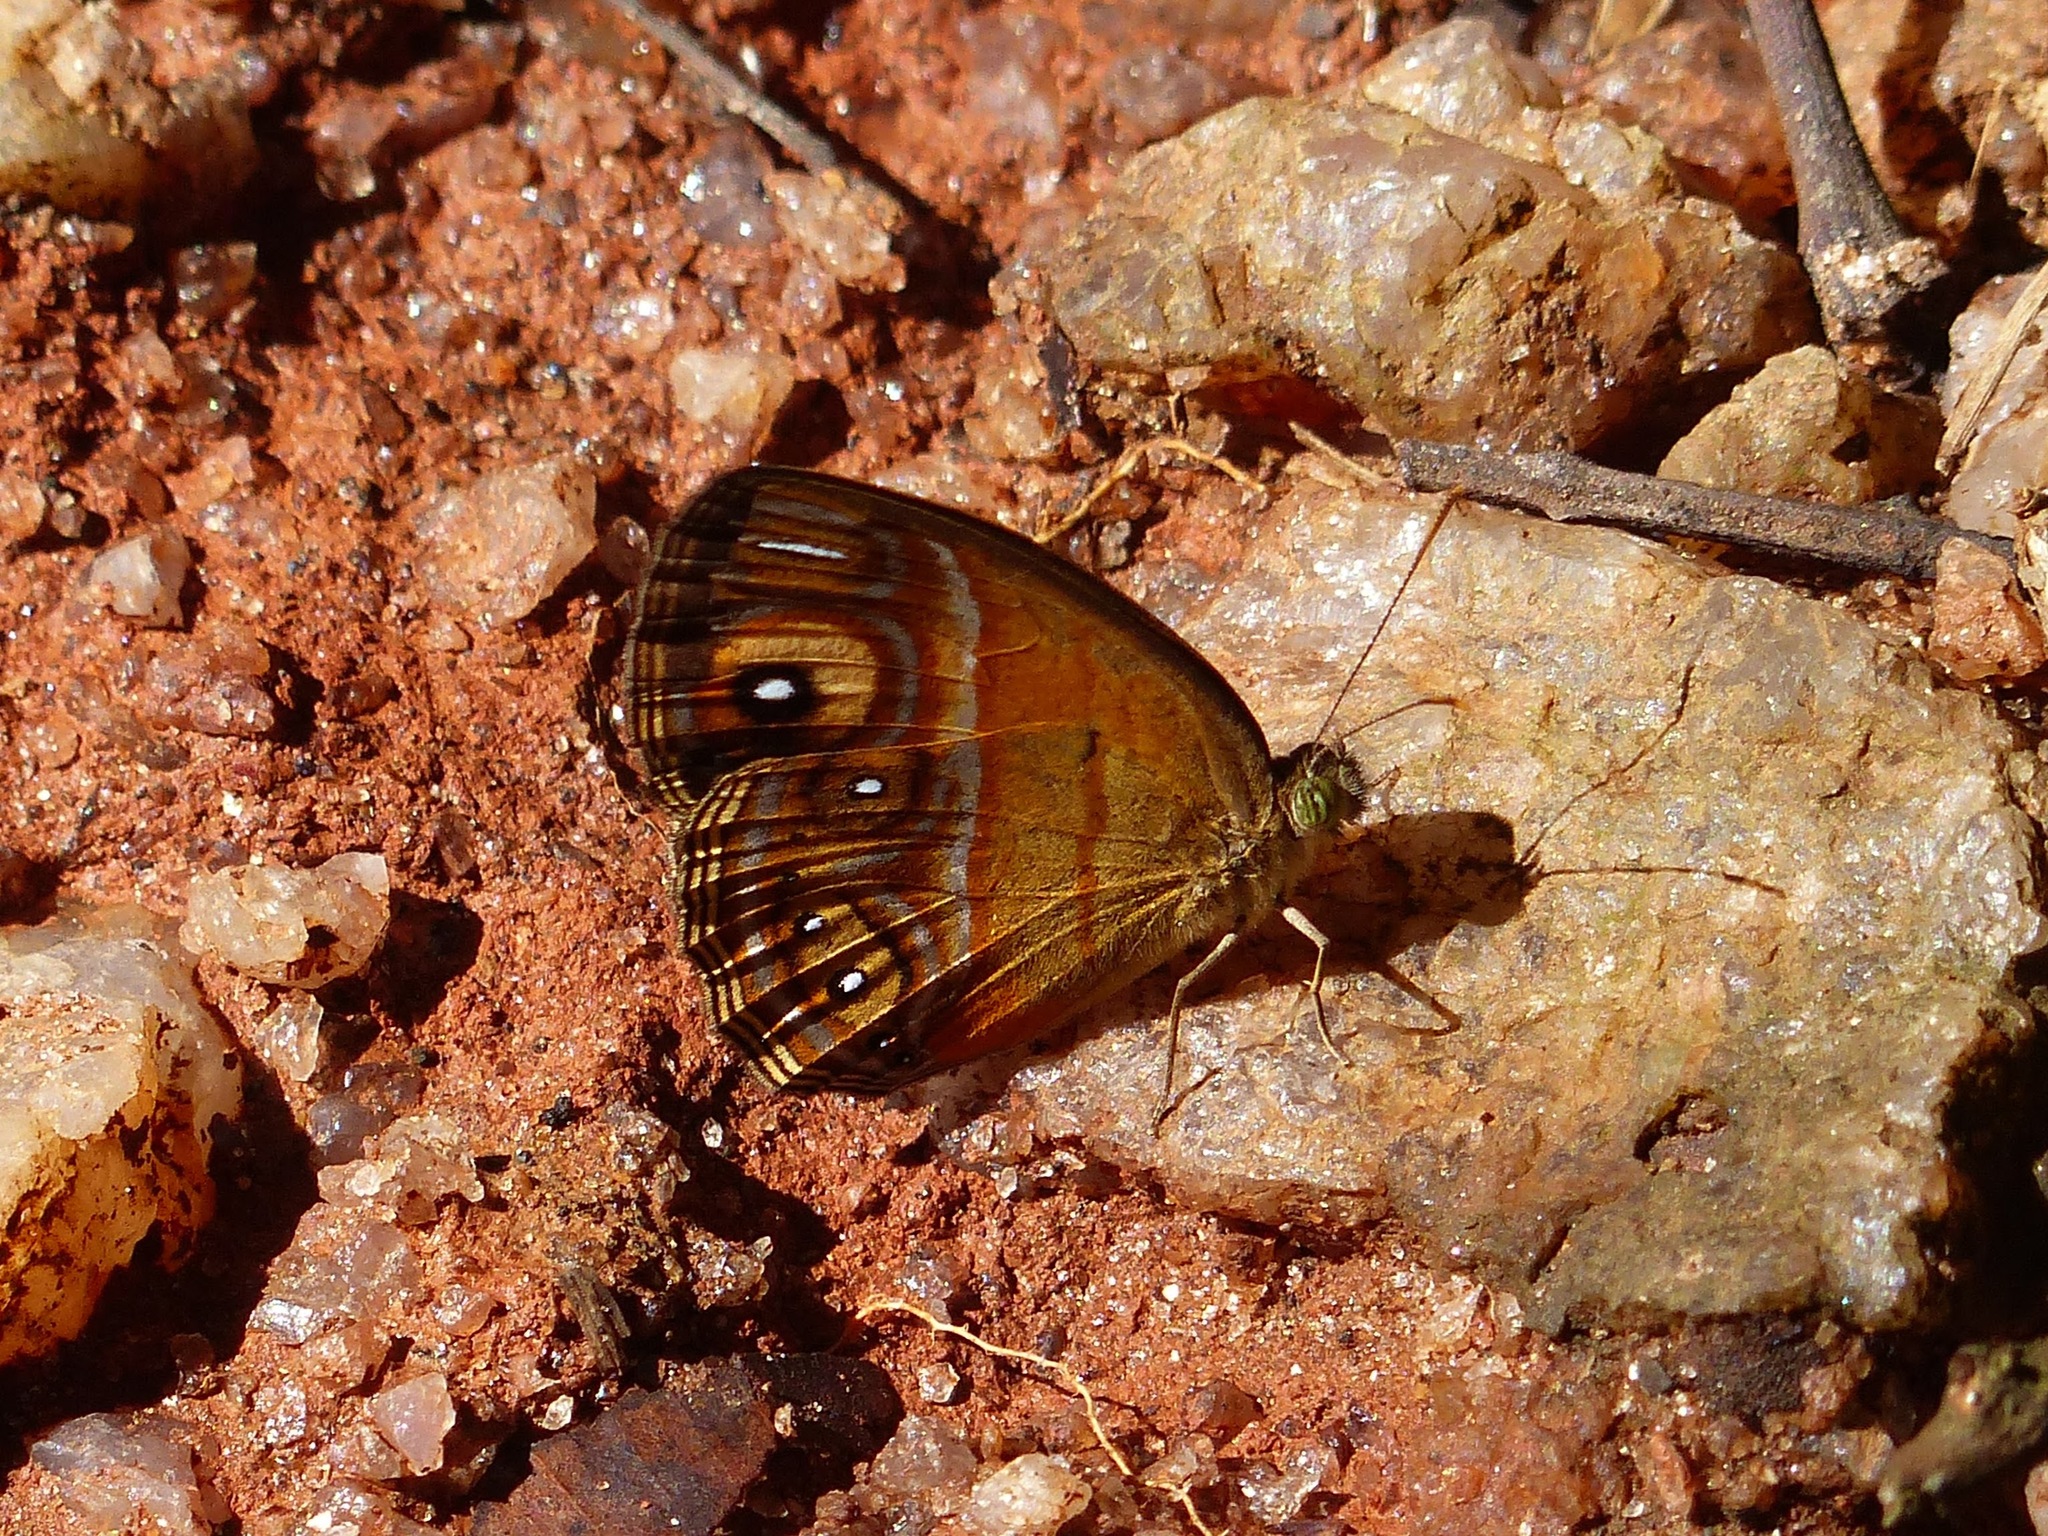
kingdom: Animalia
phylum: Arthropoda
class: Insecta
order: Lepidoptera
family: Nymphalidae
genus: Mycalesis
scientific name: Mycalesis patnia
